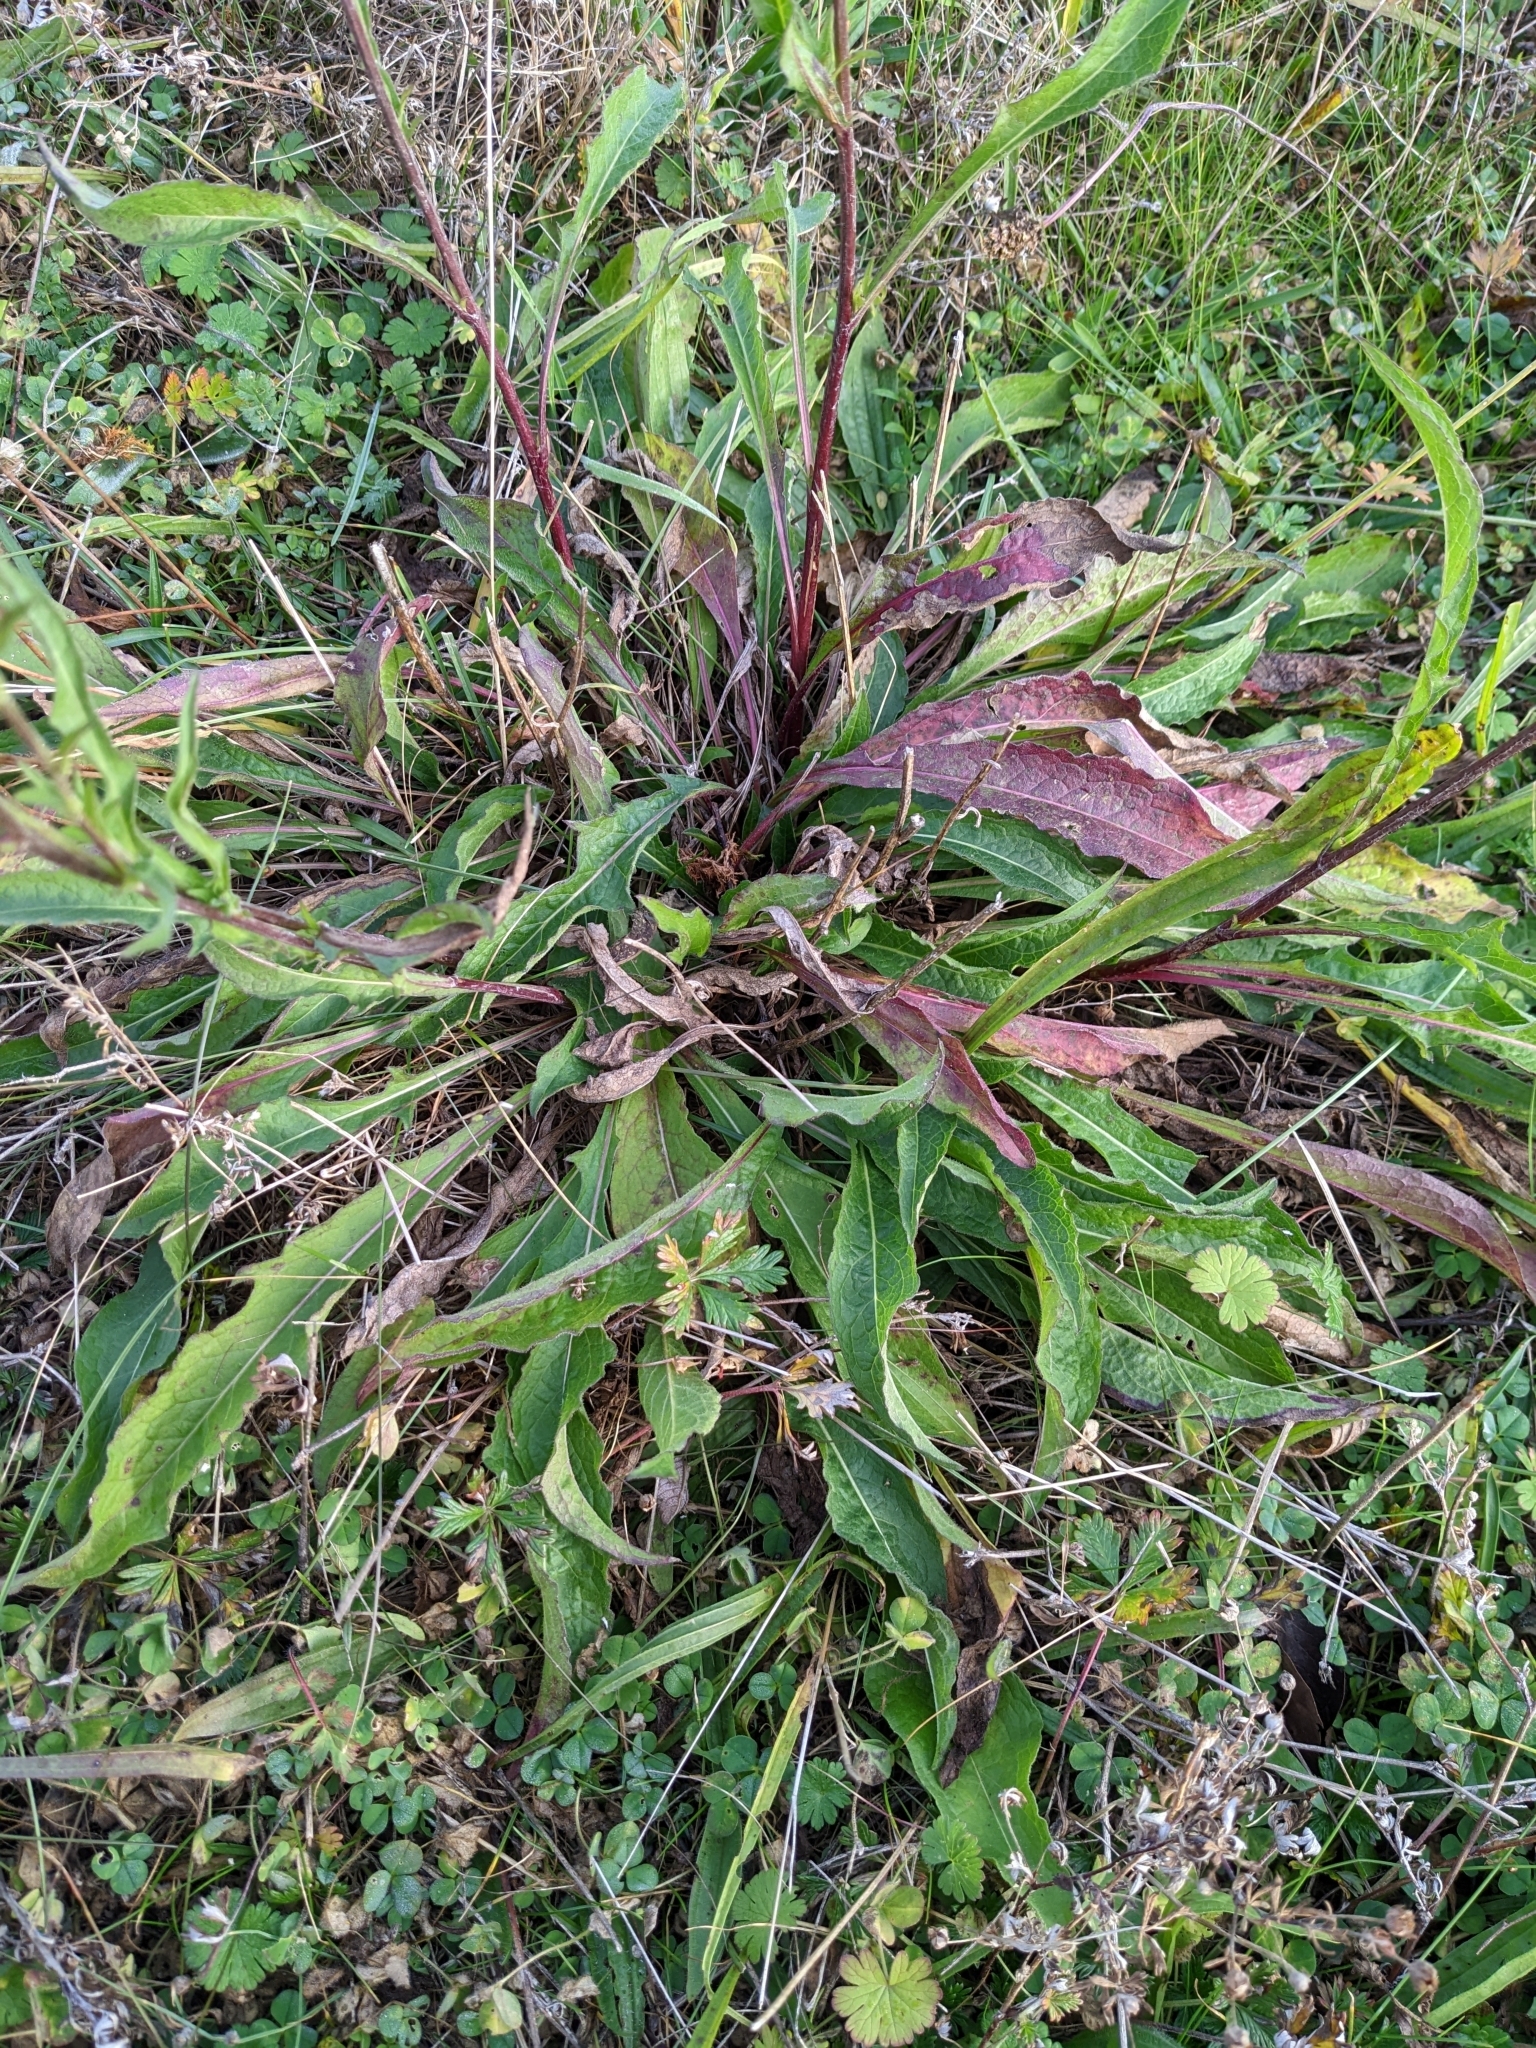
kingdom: Plantae
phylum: Tracheophyta
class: Magnoliopsida
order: Asterales
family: Asteraceae
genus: Centaurea
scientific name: Centaurea decipiens
